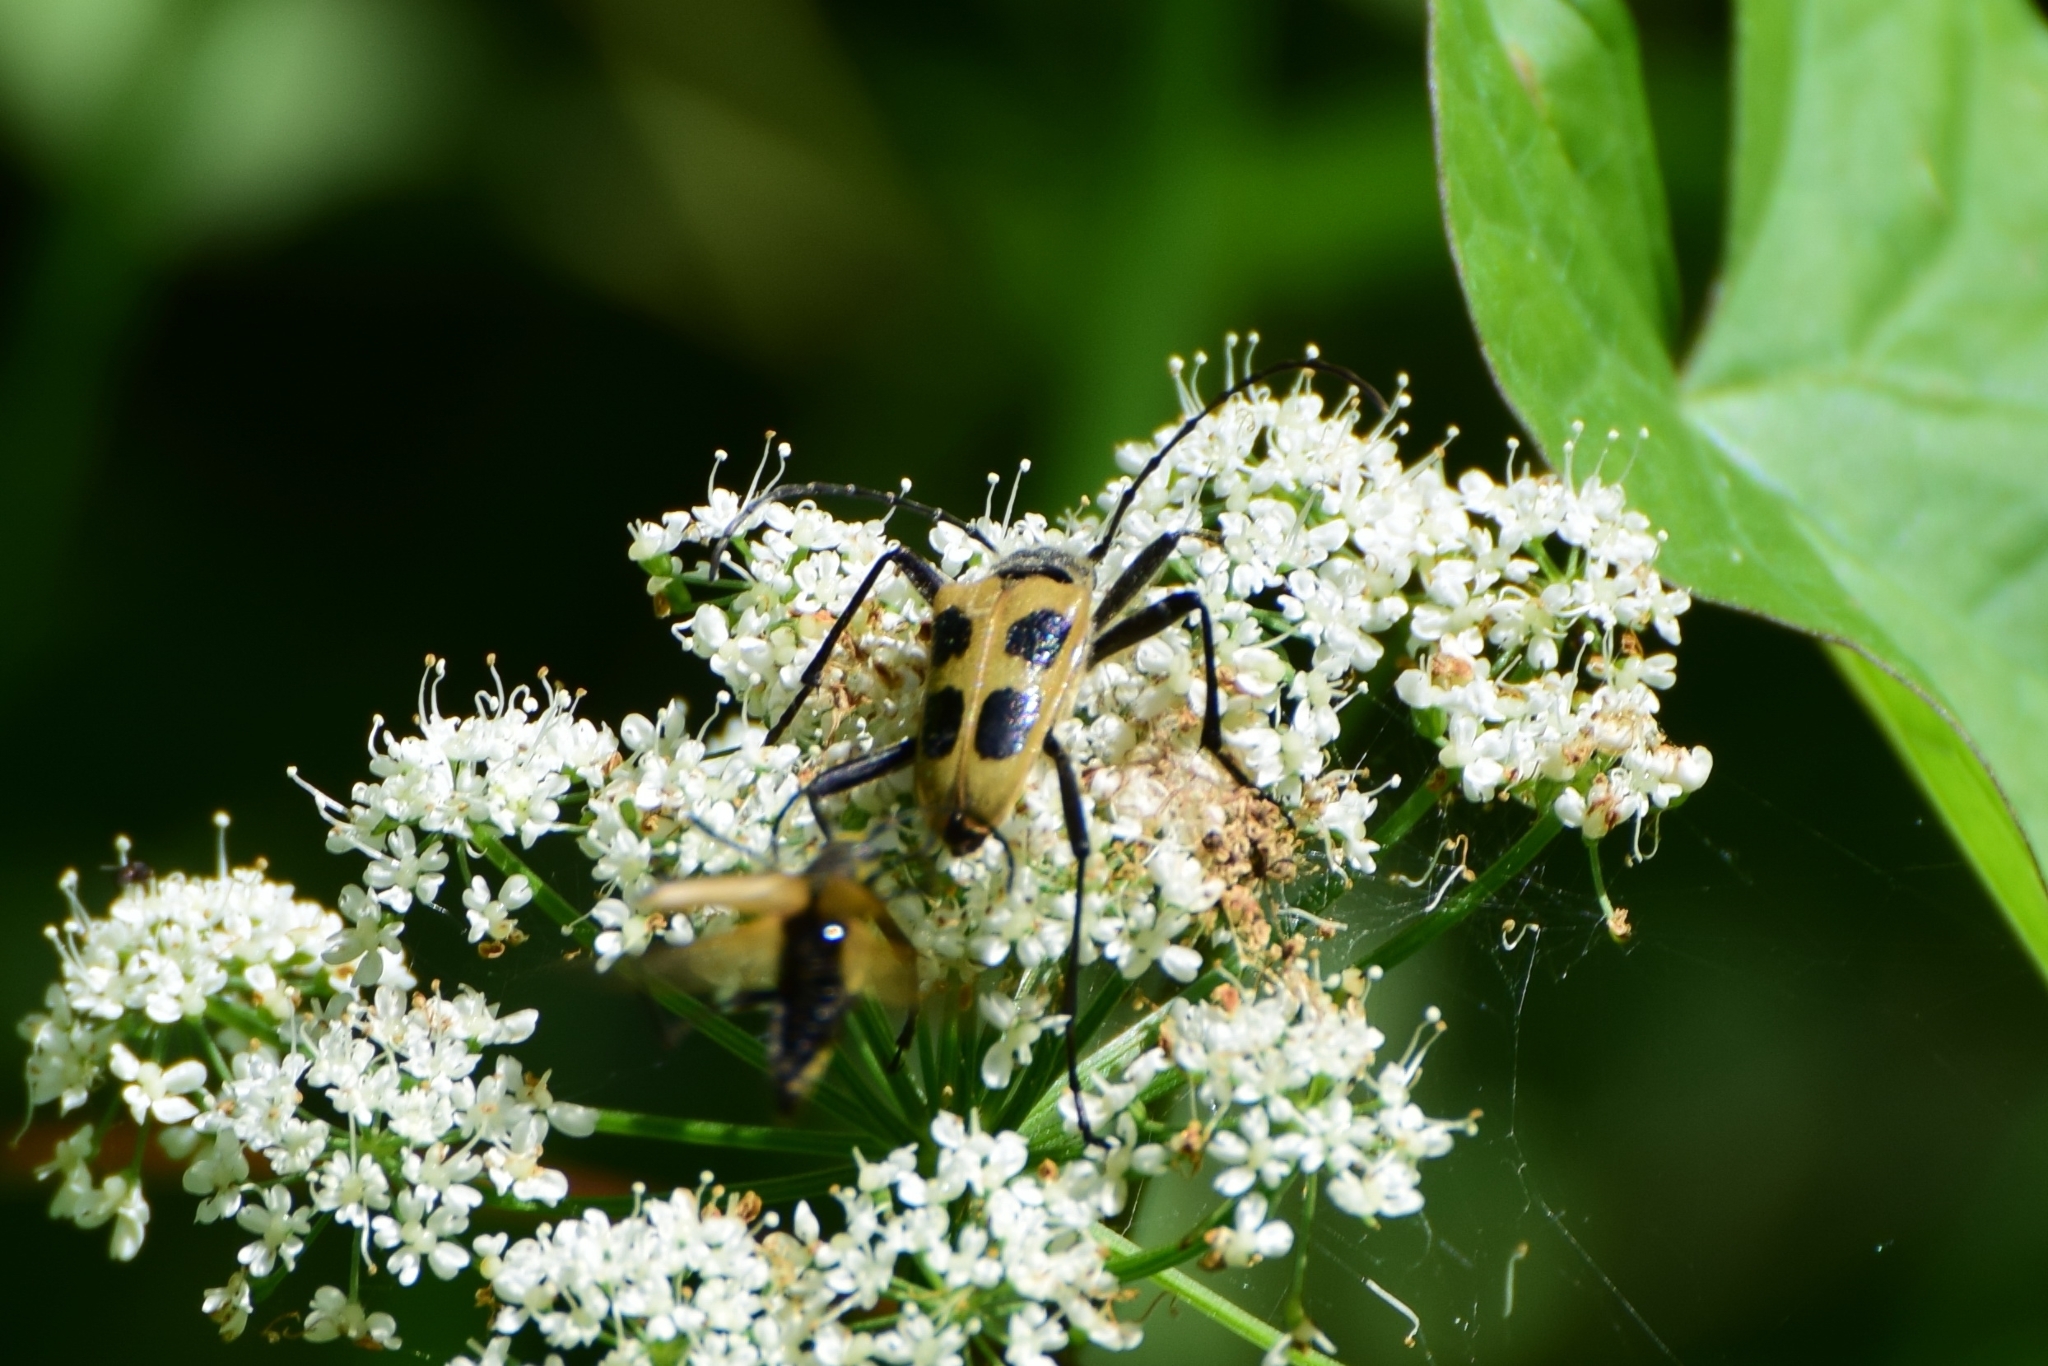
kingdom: Animalia
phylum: Arthropoda
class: Insecta
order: Coleoptera
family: Cerambycidae
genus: Pachyta
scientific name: Pachyta quadrimaculata
